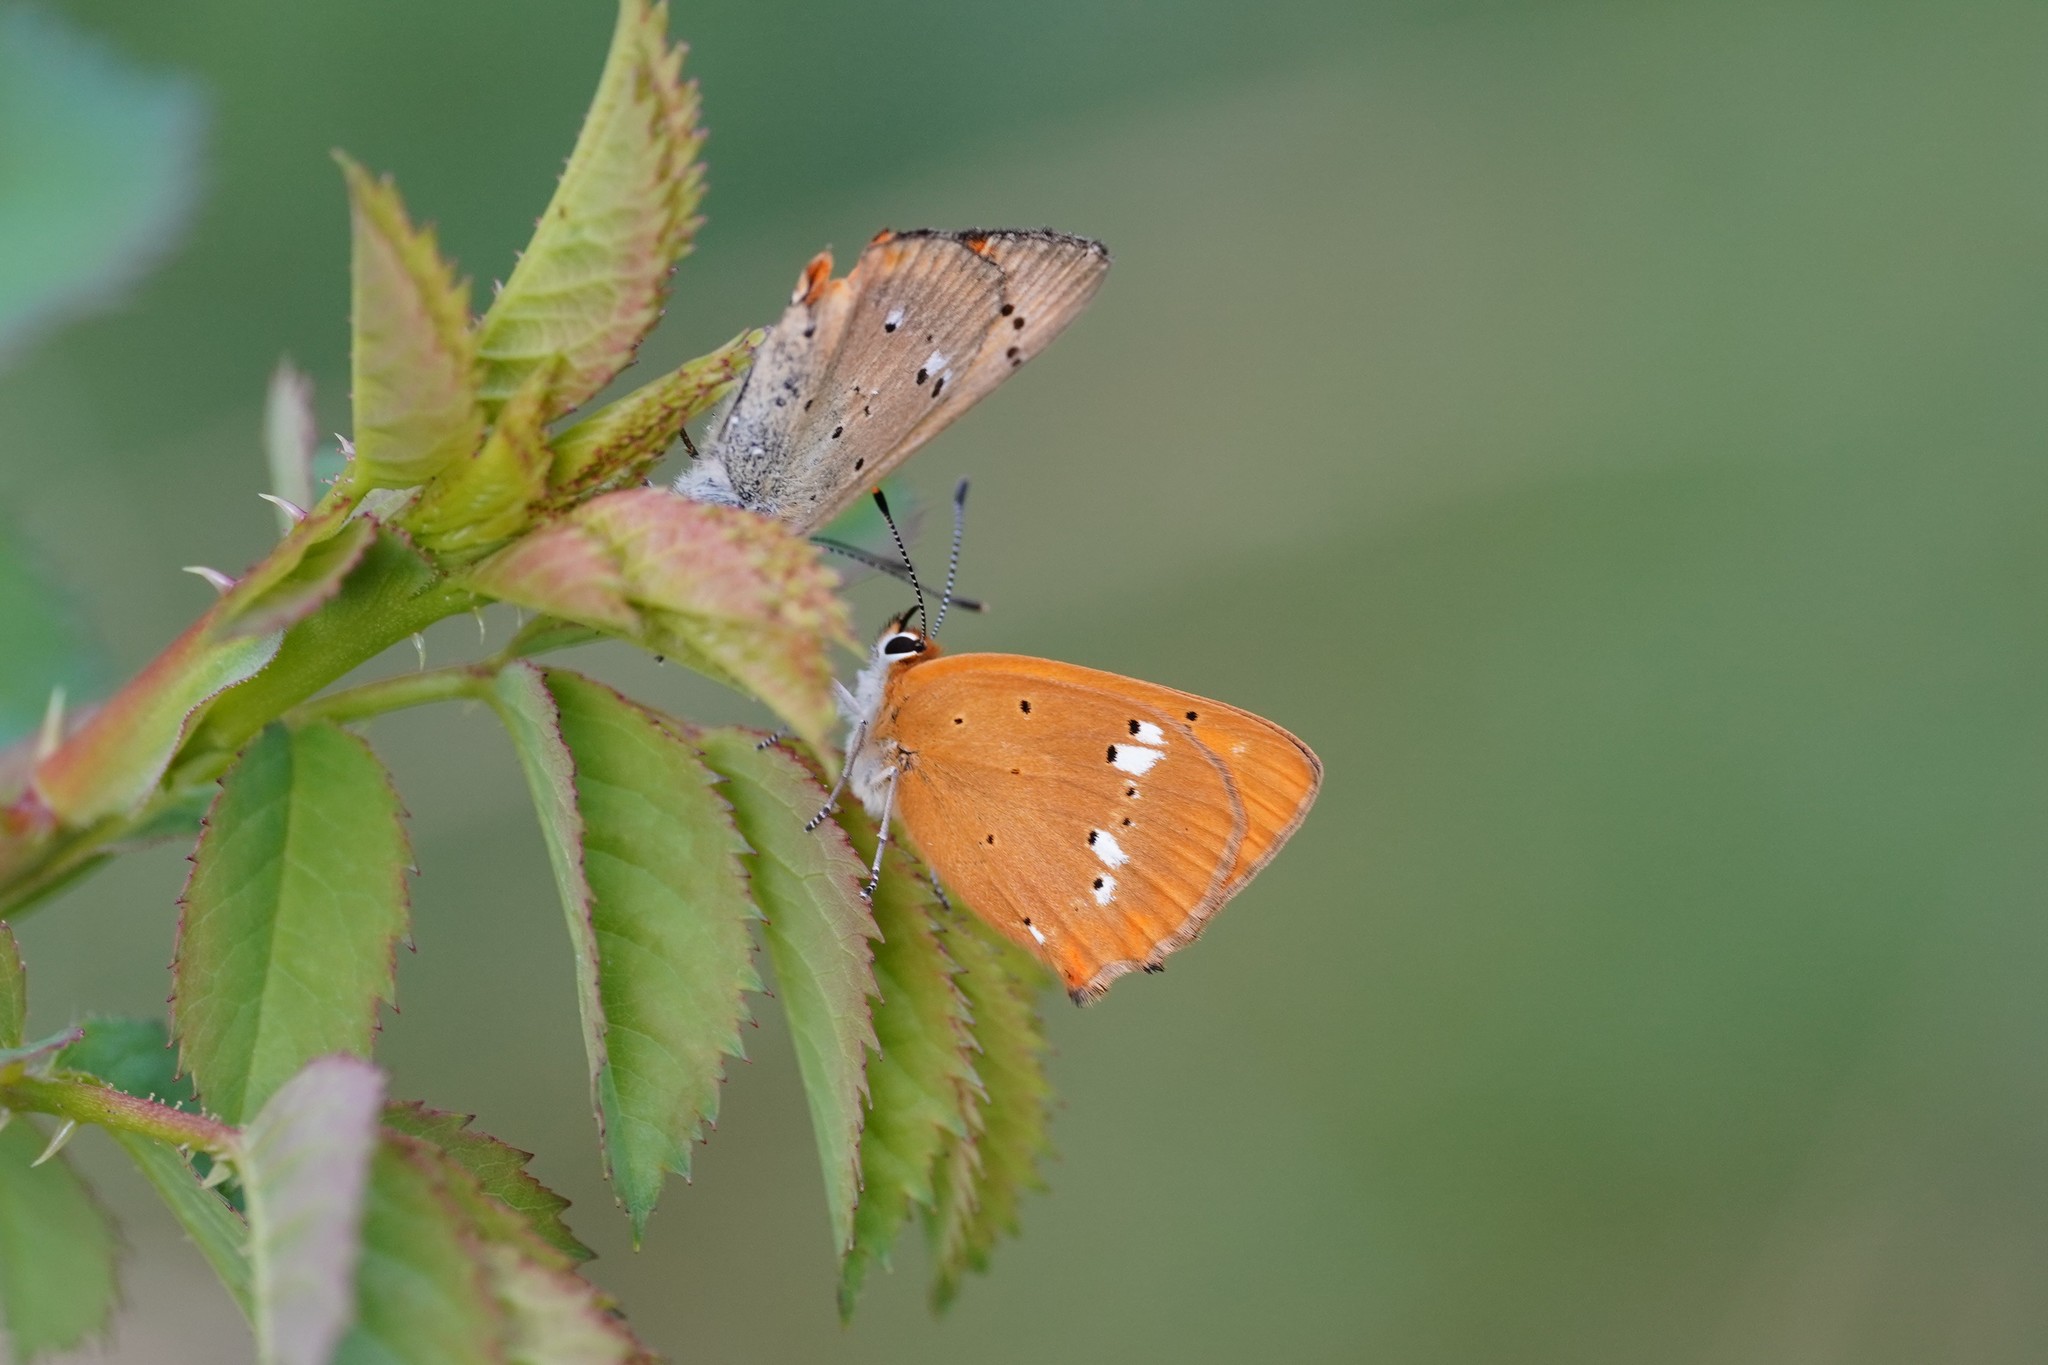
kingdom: Animalia
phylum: Arthropoda
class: Insecta
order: Lepidoptera
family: Lycaenidae
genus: Lycaena
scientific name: Lycaena virgaureae
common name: Scarce copper
